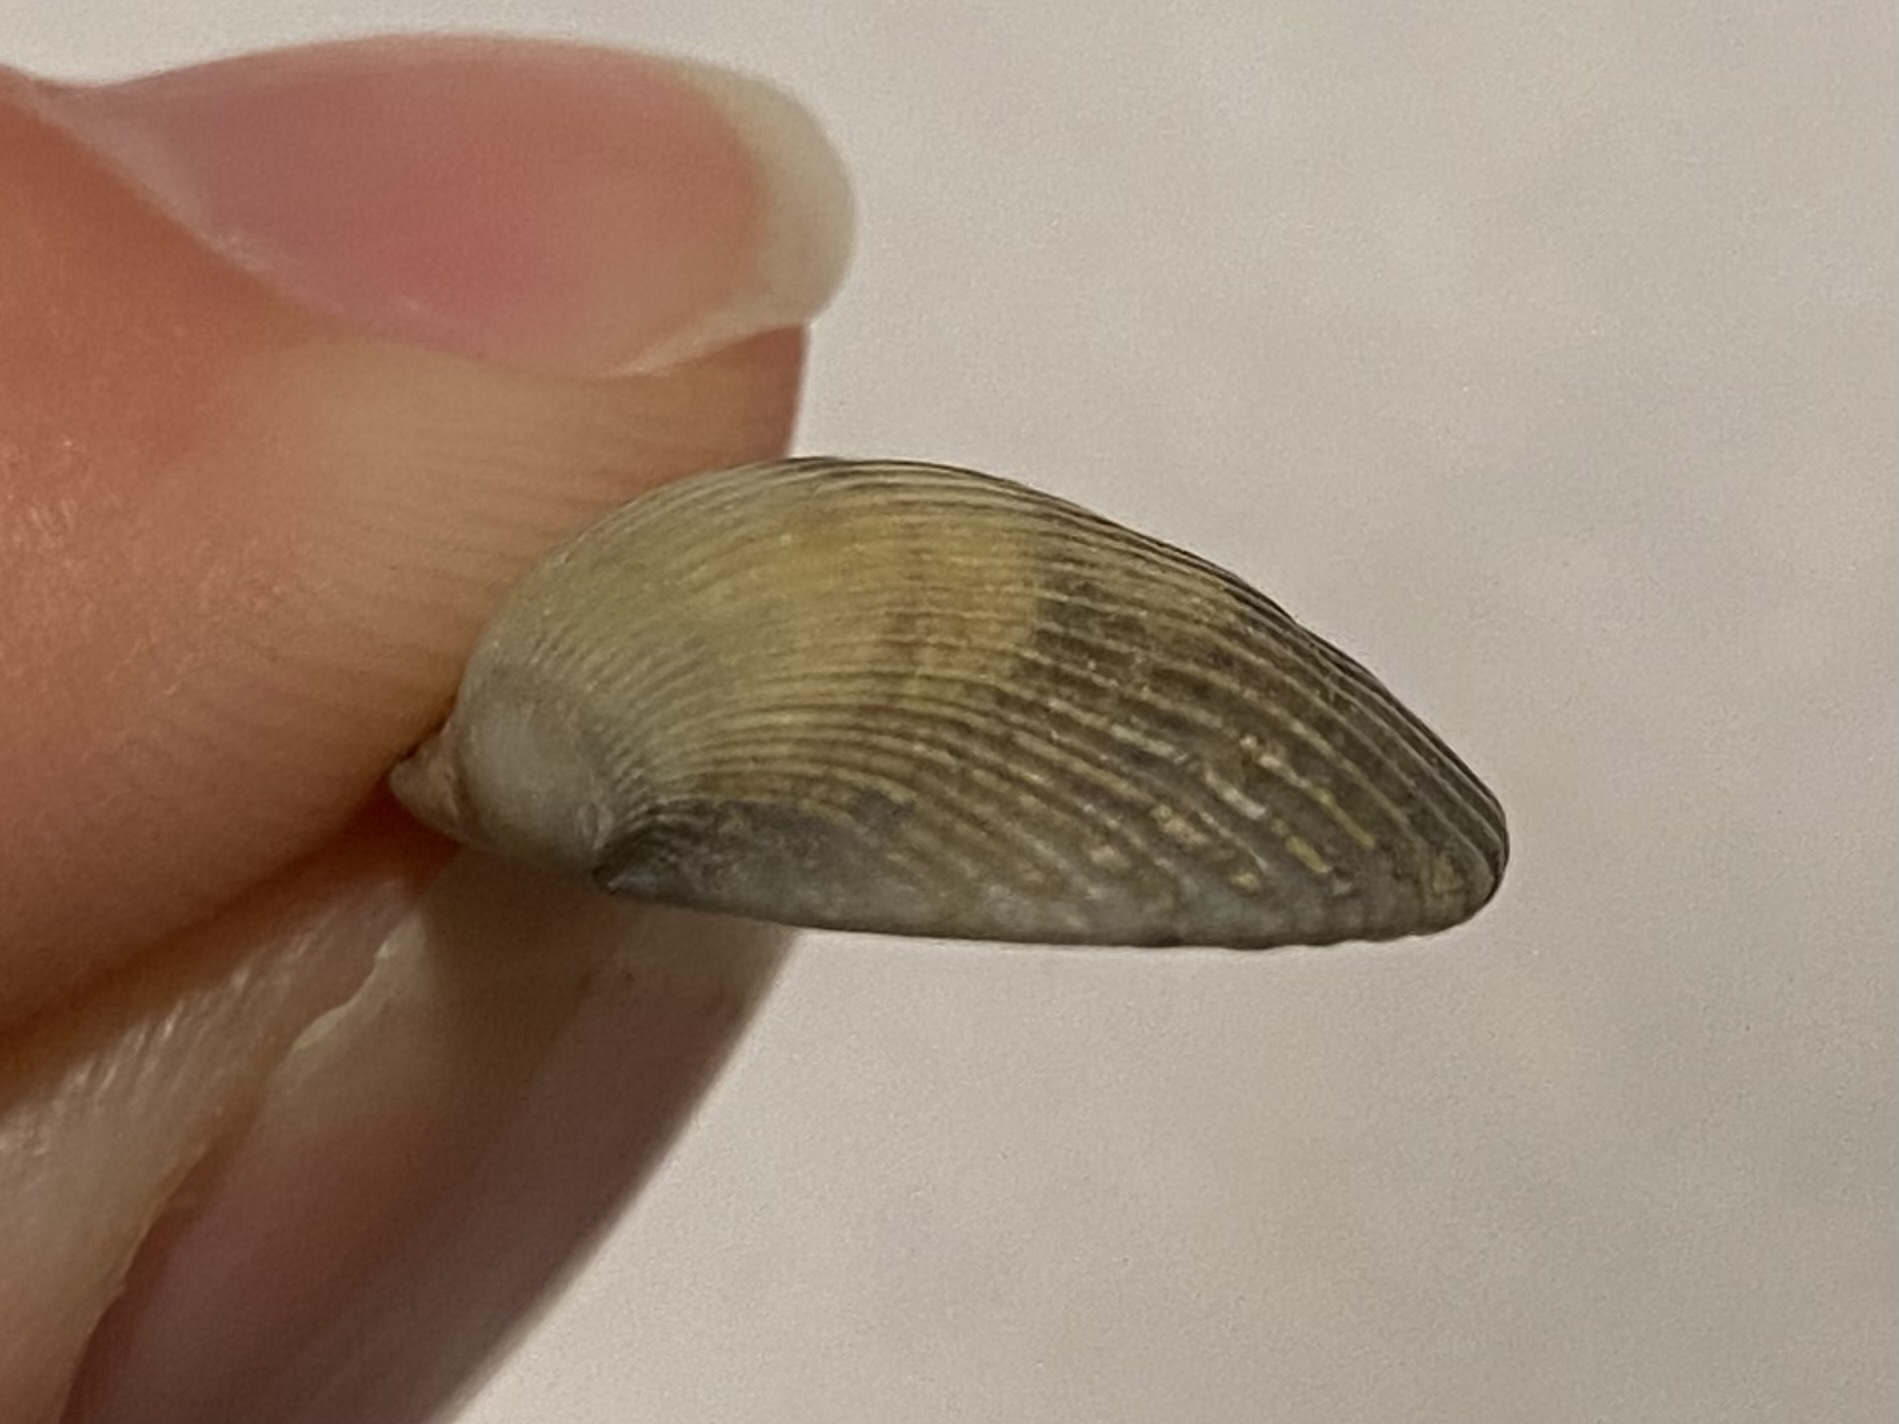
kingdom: Animalia
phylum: Mollusca
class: Bivalvia
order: Arcida
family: Arcidae
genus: Lunarca
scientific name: Lunarca ovalis
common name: Blood ark
